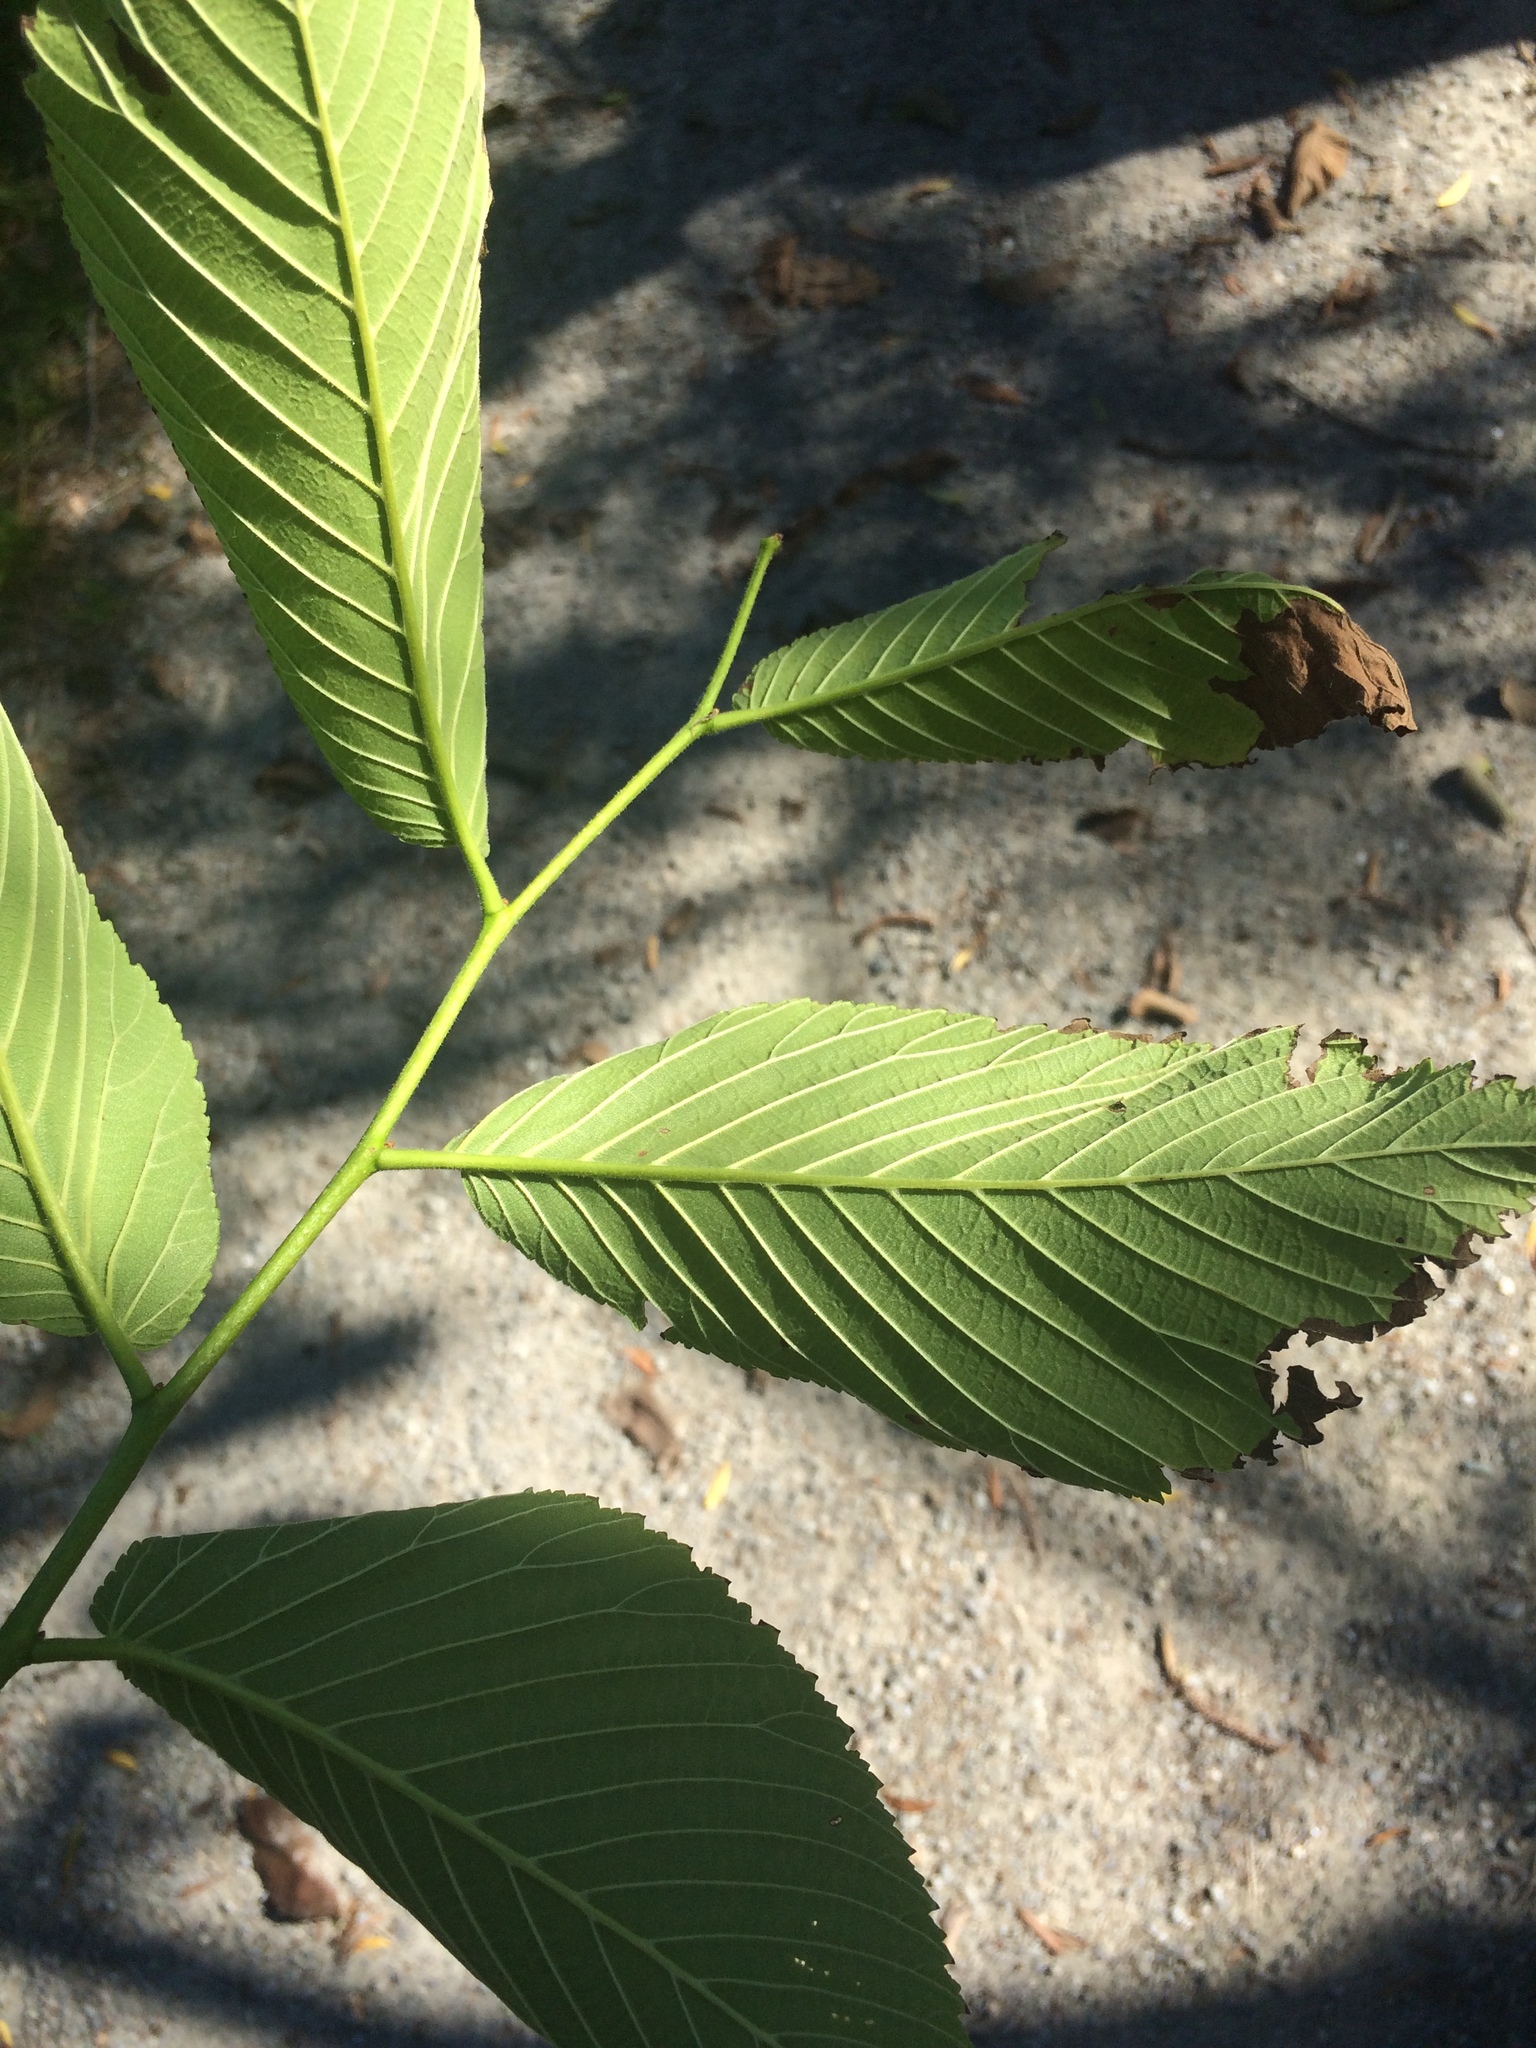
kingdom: Plantae
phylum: Tracheophyta
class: Magnoliopsida
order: Rosales
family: Ulmaceae
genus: Ulmus
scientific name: Ulmus rubra
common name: Slippery elm
